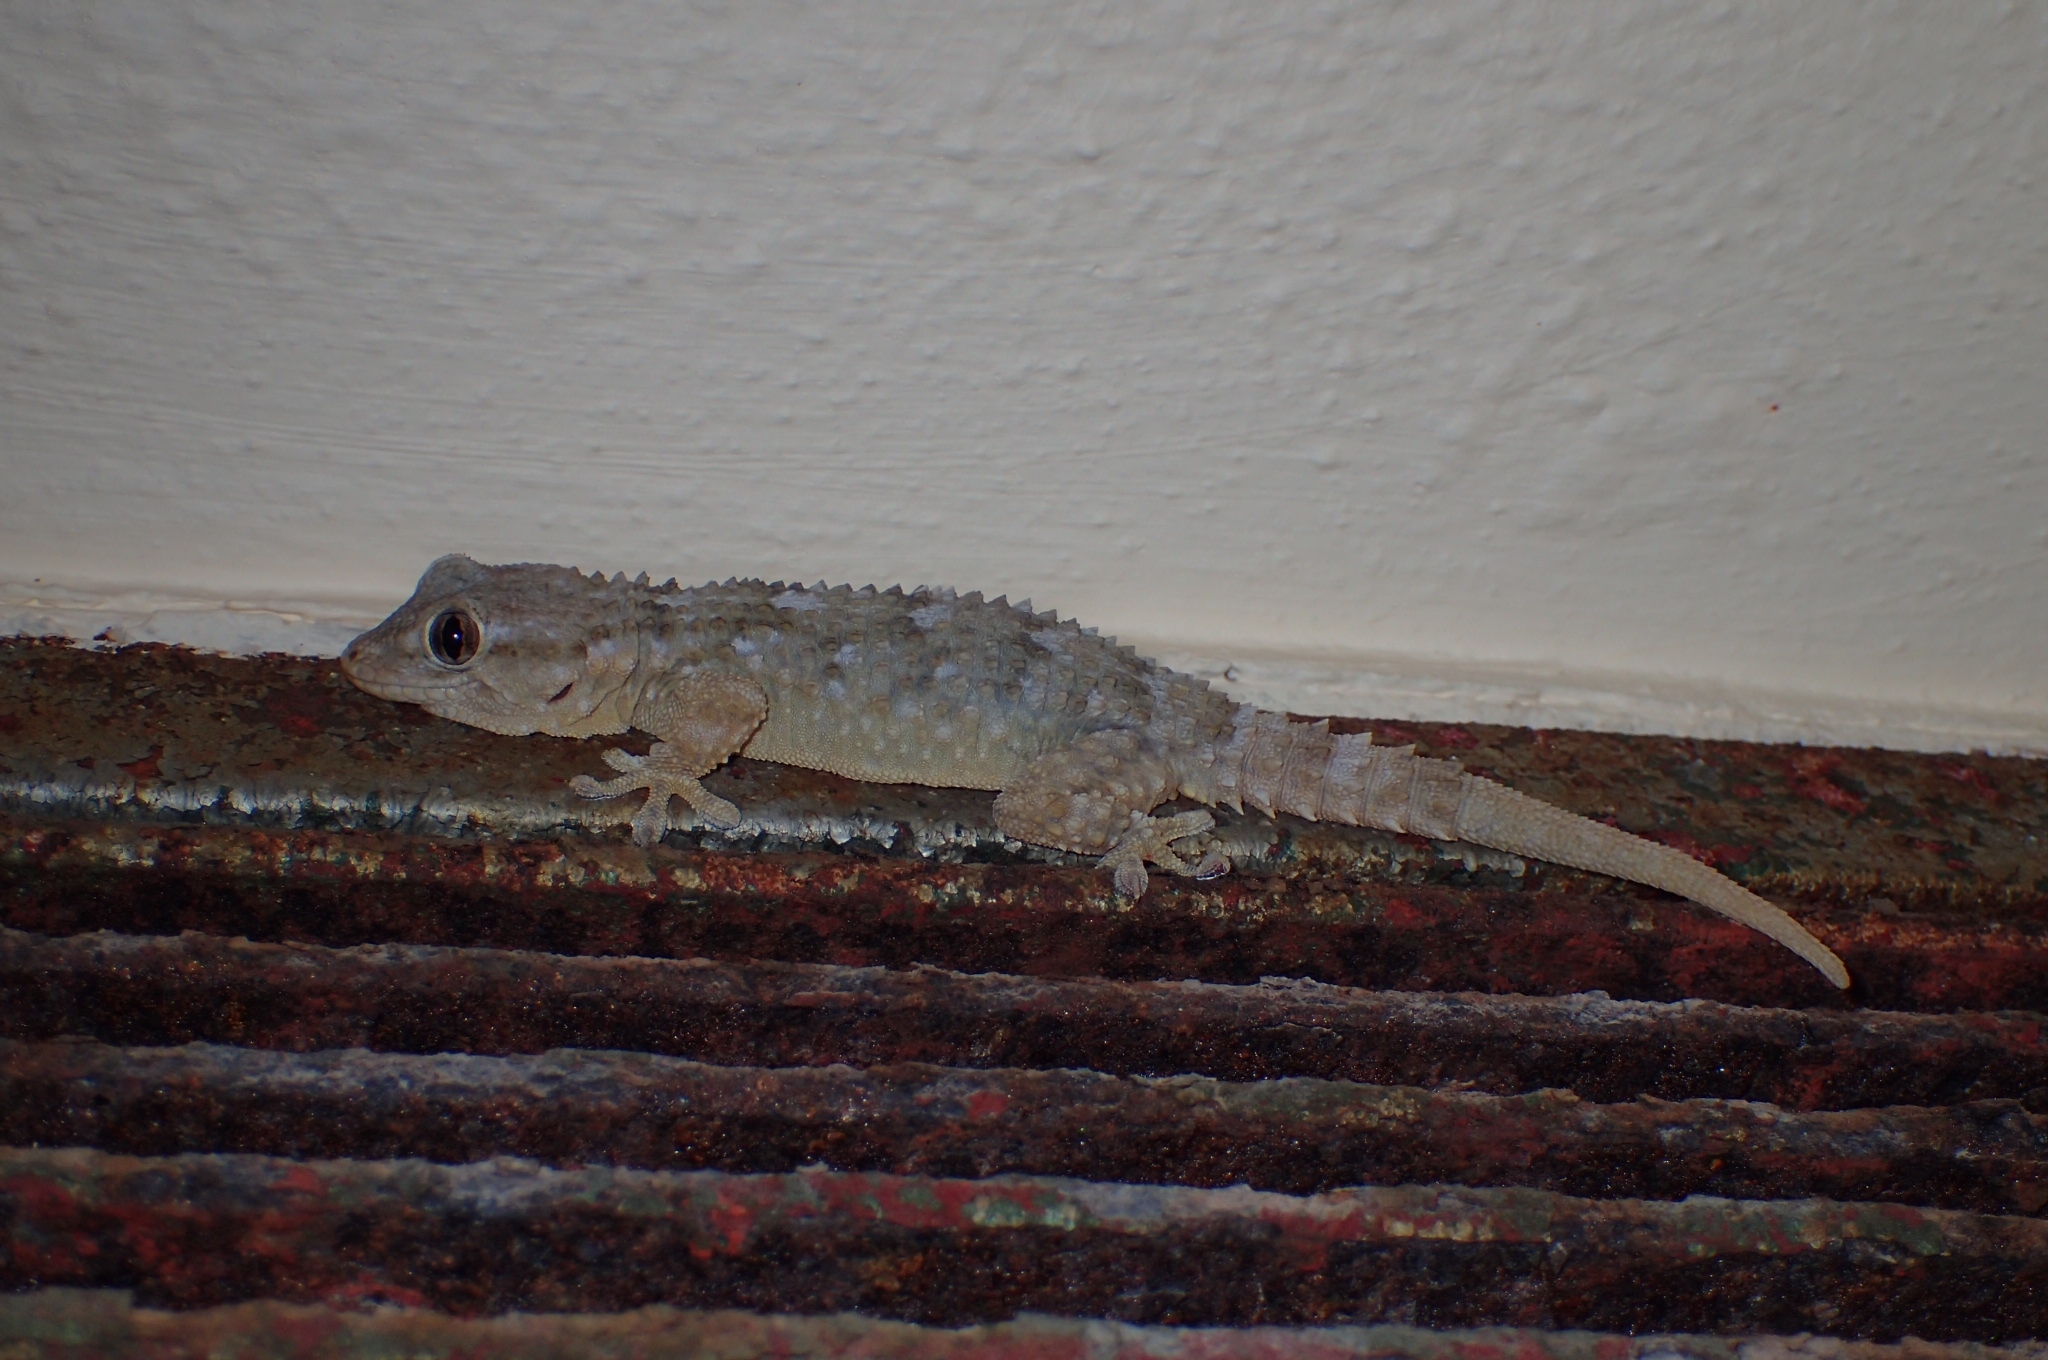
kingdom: Animalia
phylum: Chordata
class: Squamata
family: Phyllodactylidae
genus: Tarentola
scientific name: Tarentola mauritanica
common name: Moorish gecko
